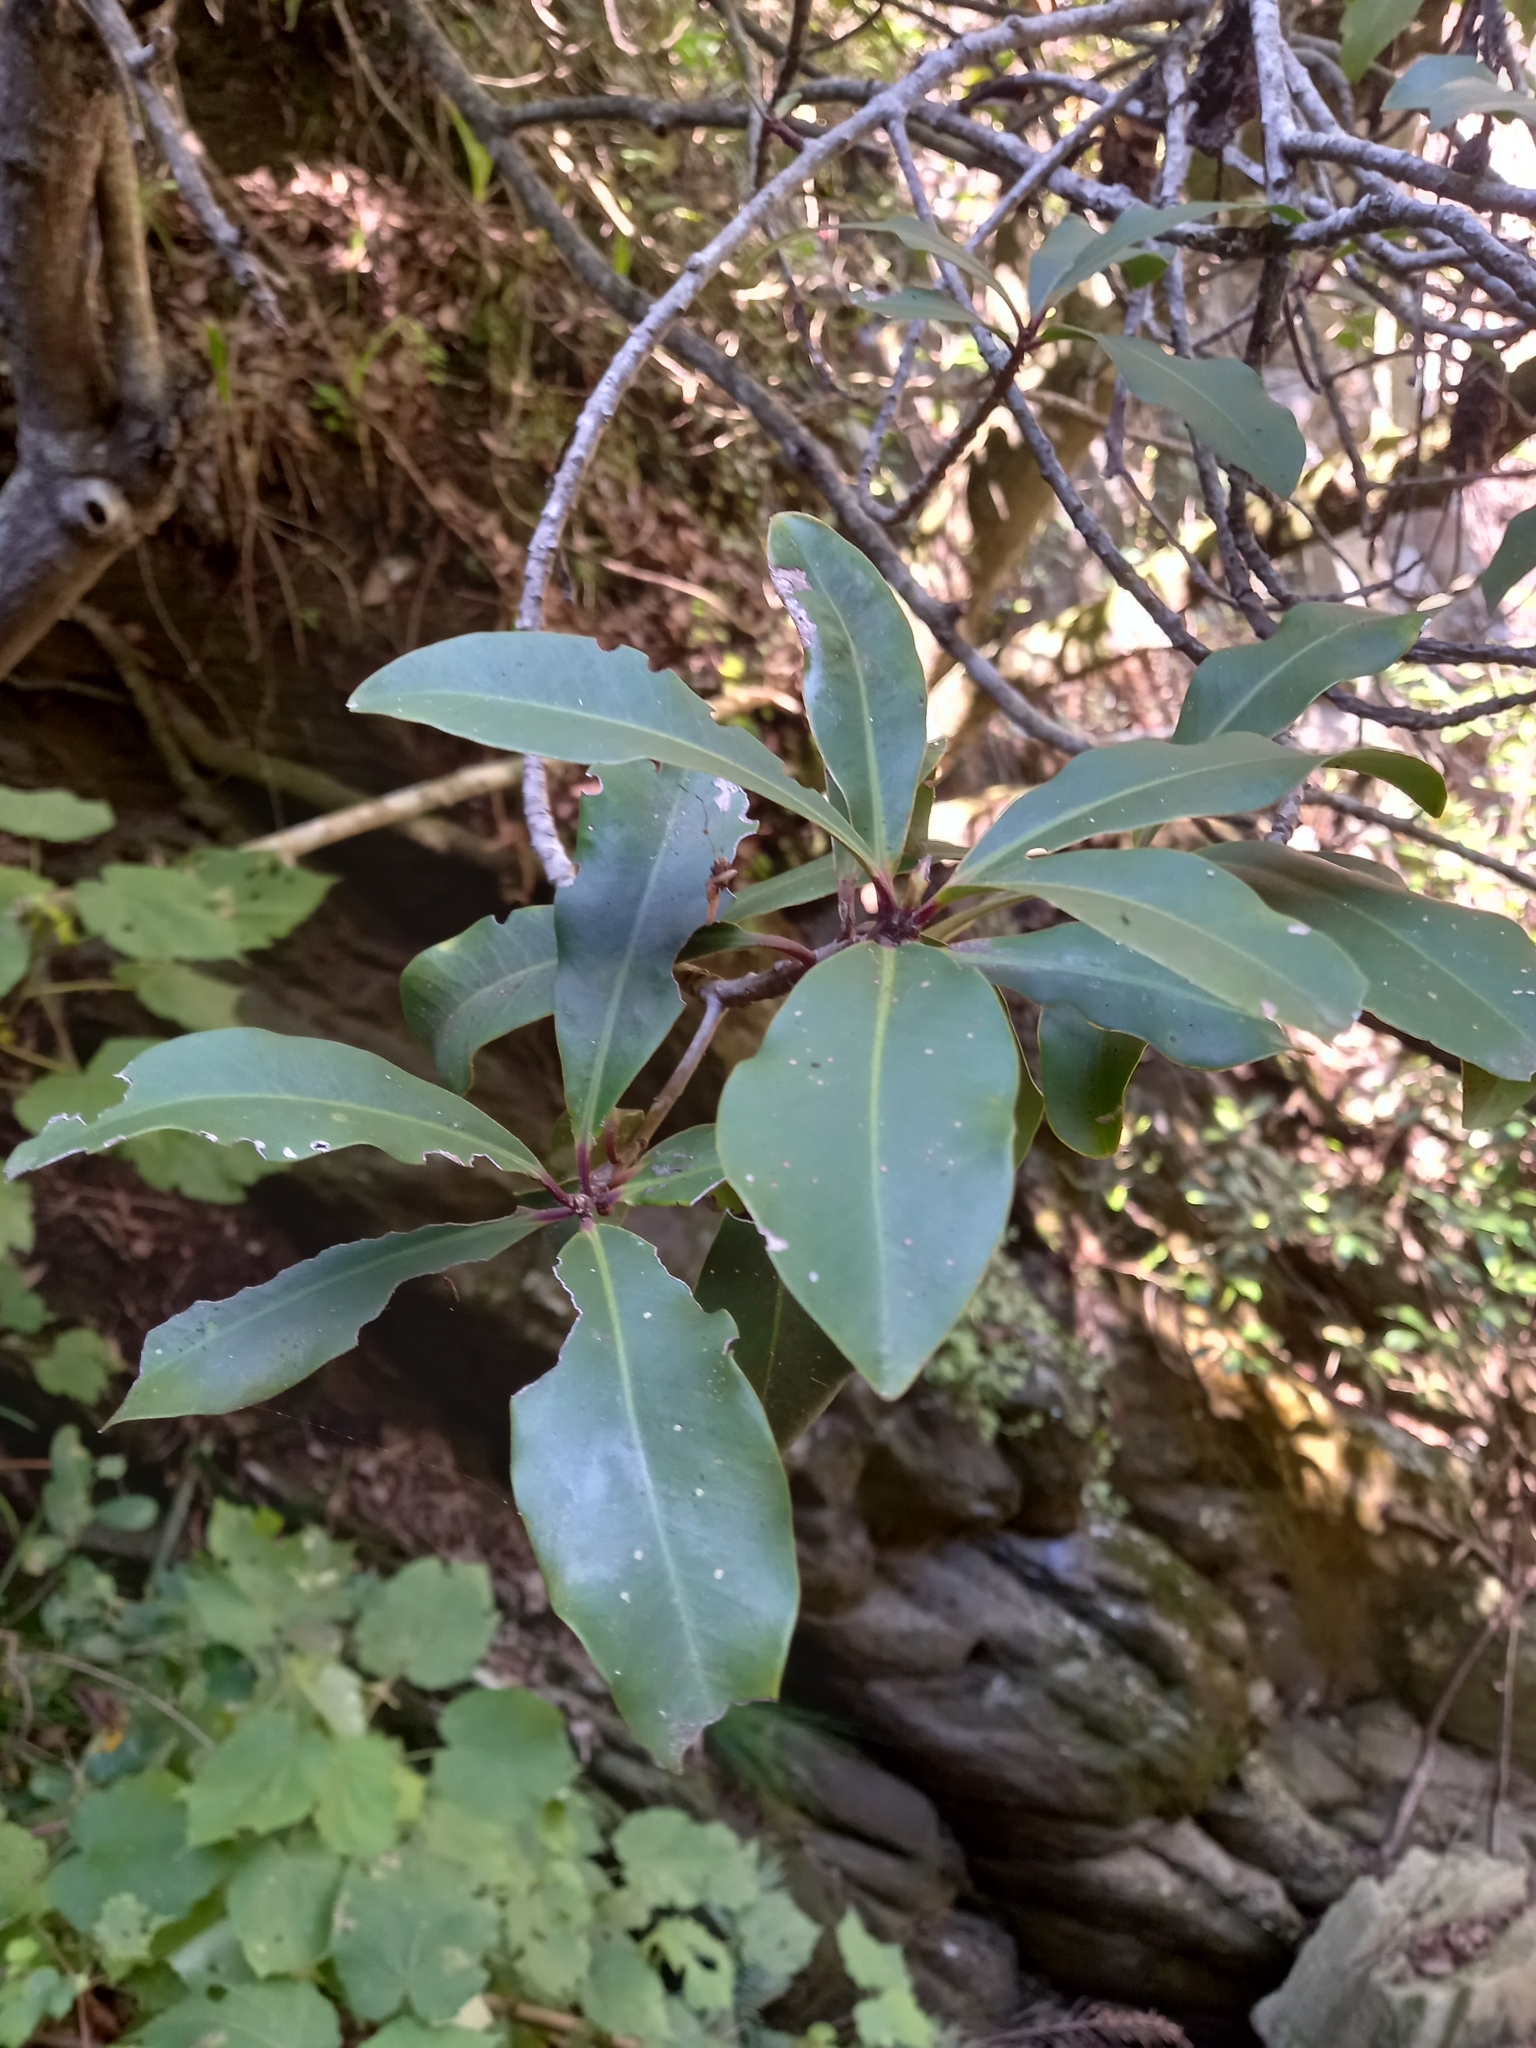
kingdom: Plantae
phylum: Tracheophyta
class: Magnoliopsida
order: Ericales
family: Primulaceae
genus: Myrsine
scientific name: Myrsine melanophloeos
